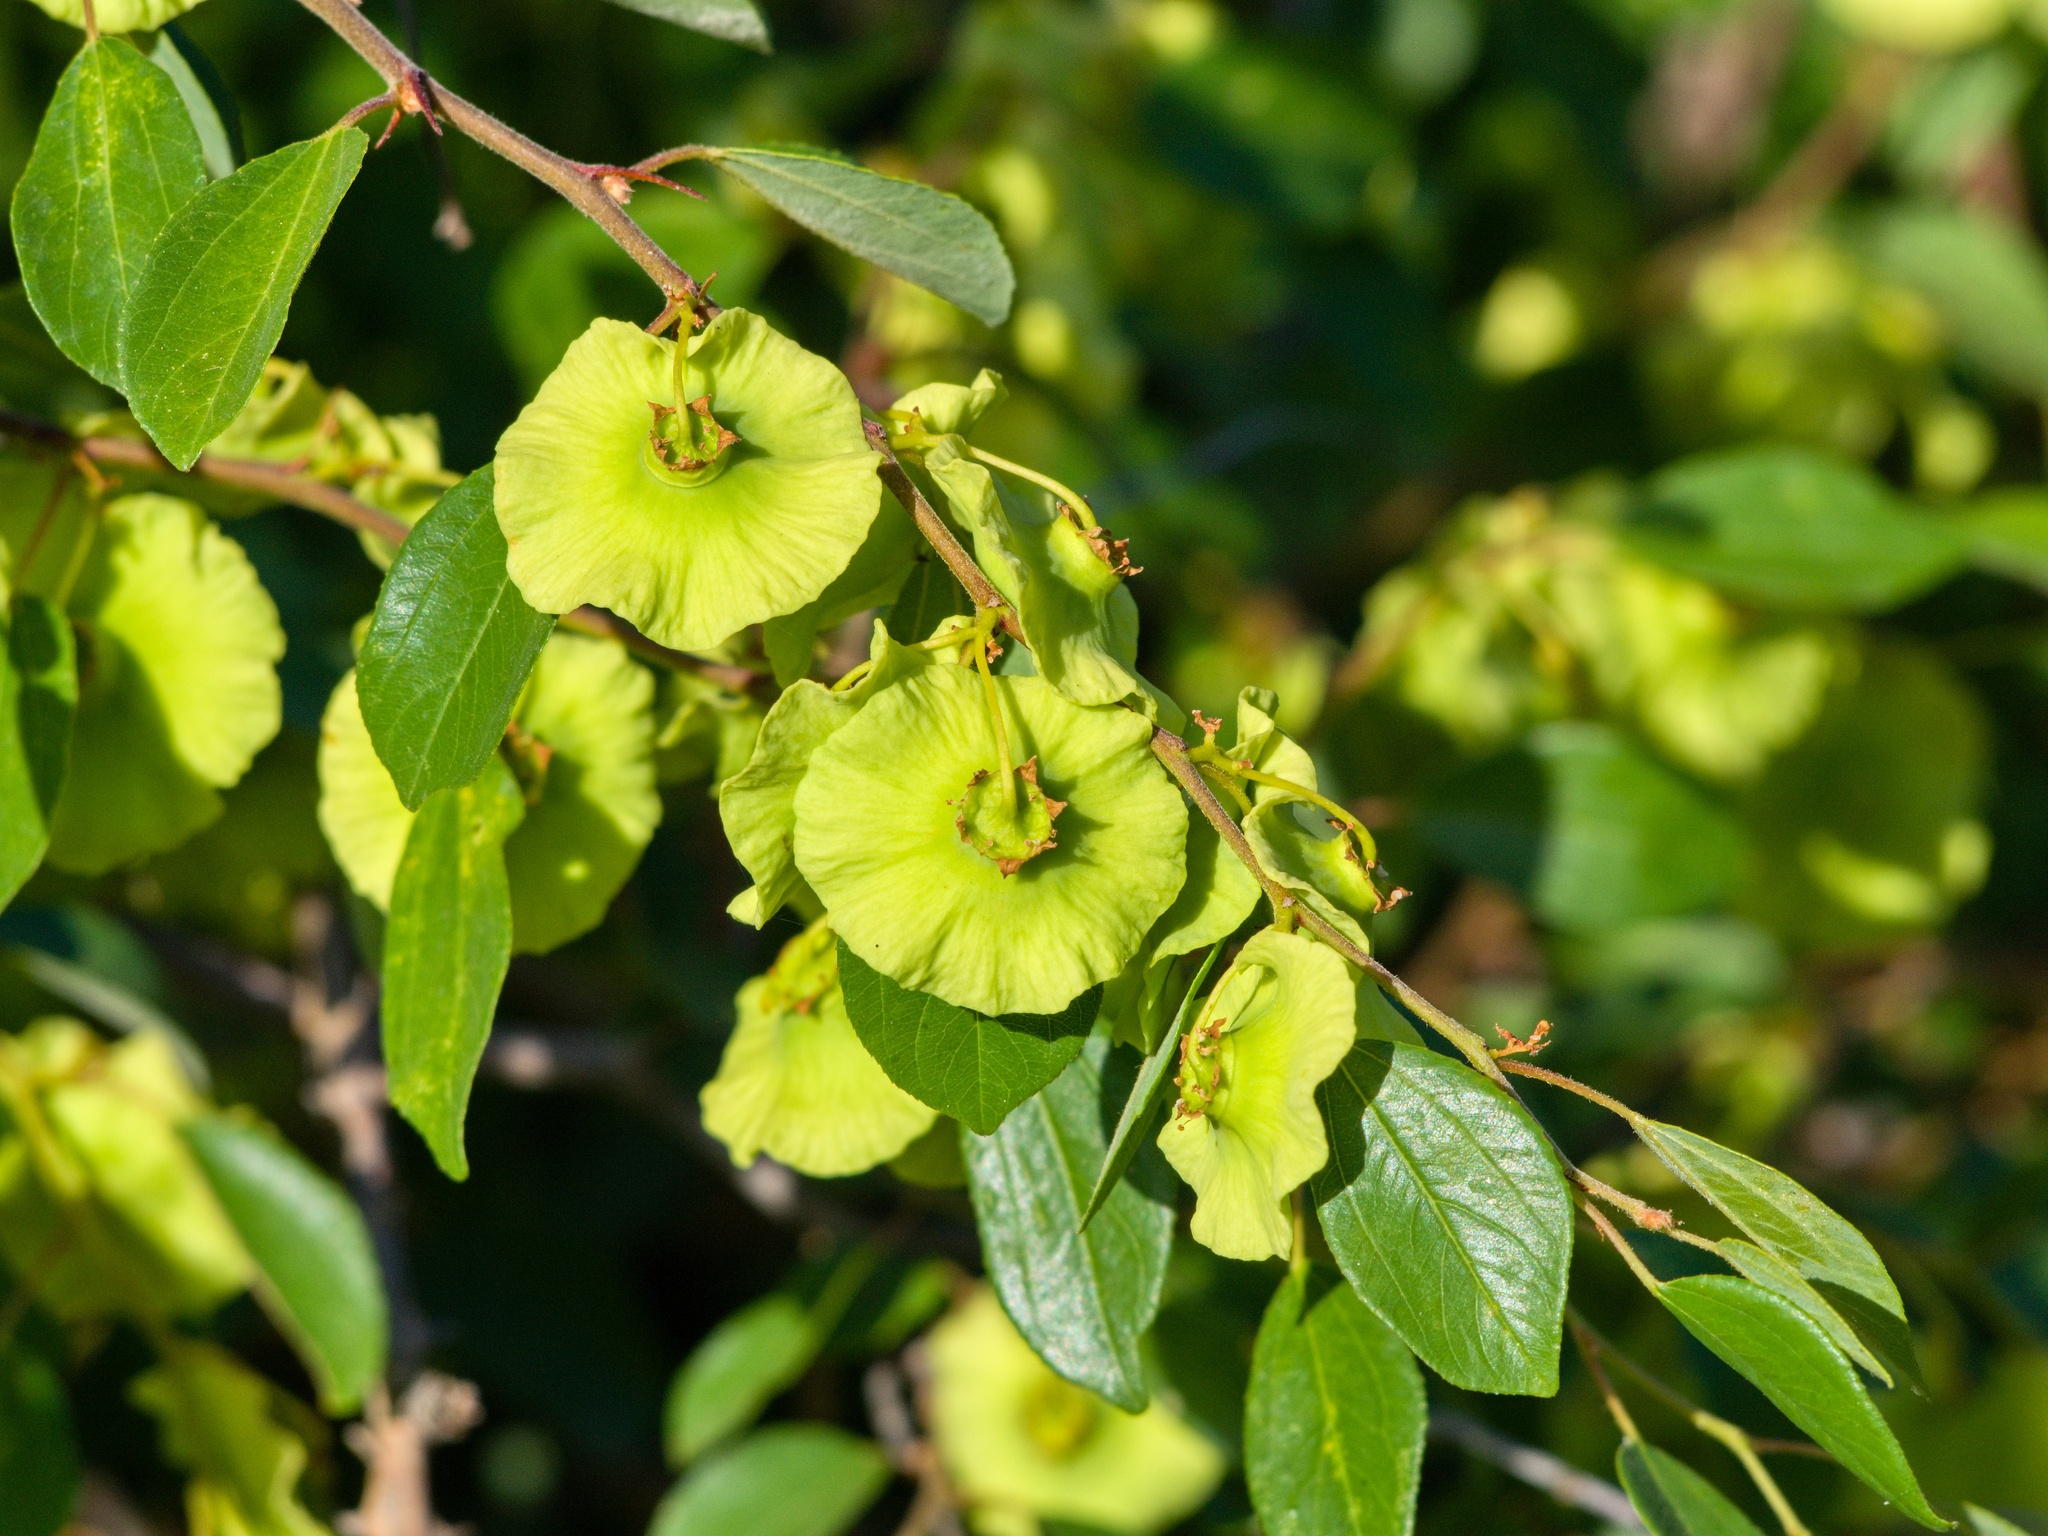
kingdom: Plantae
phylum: Tracheophyta
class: Magnoliopsida
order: Rosales
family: Rhamnaceae
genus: Paliurus
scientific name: Paliurus spina-christi
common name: Jeruselem thorn
